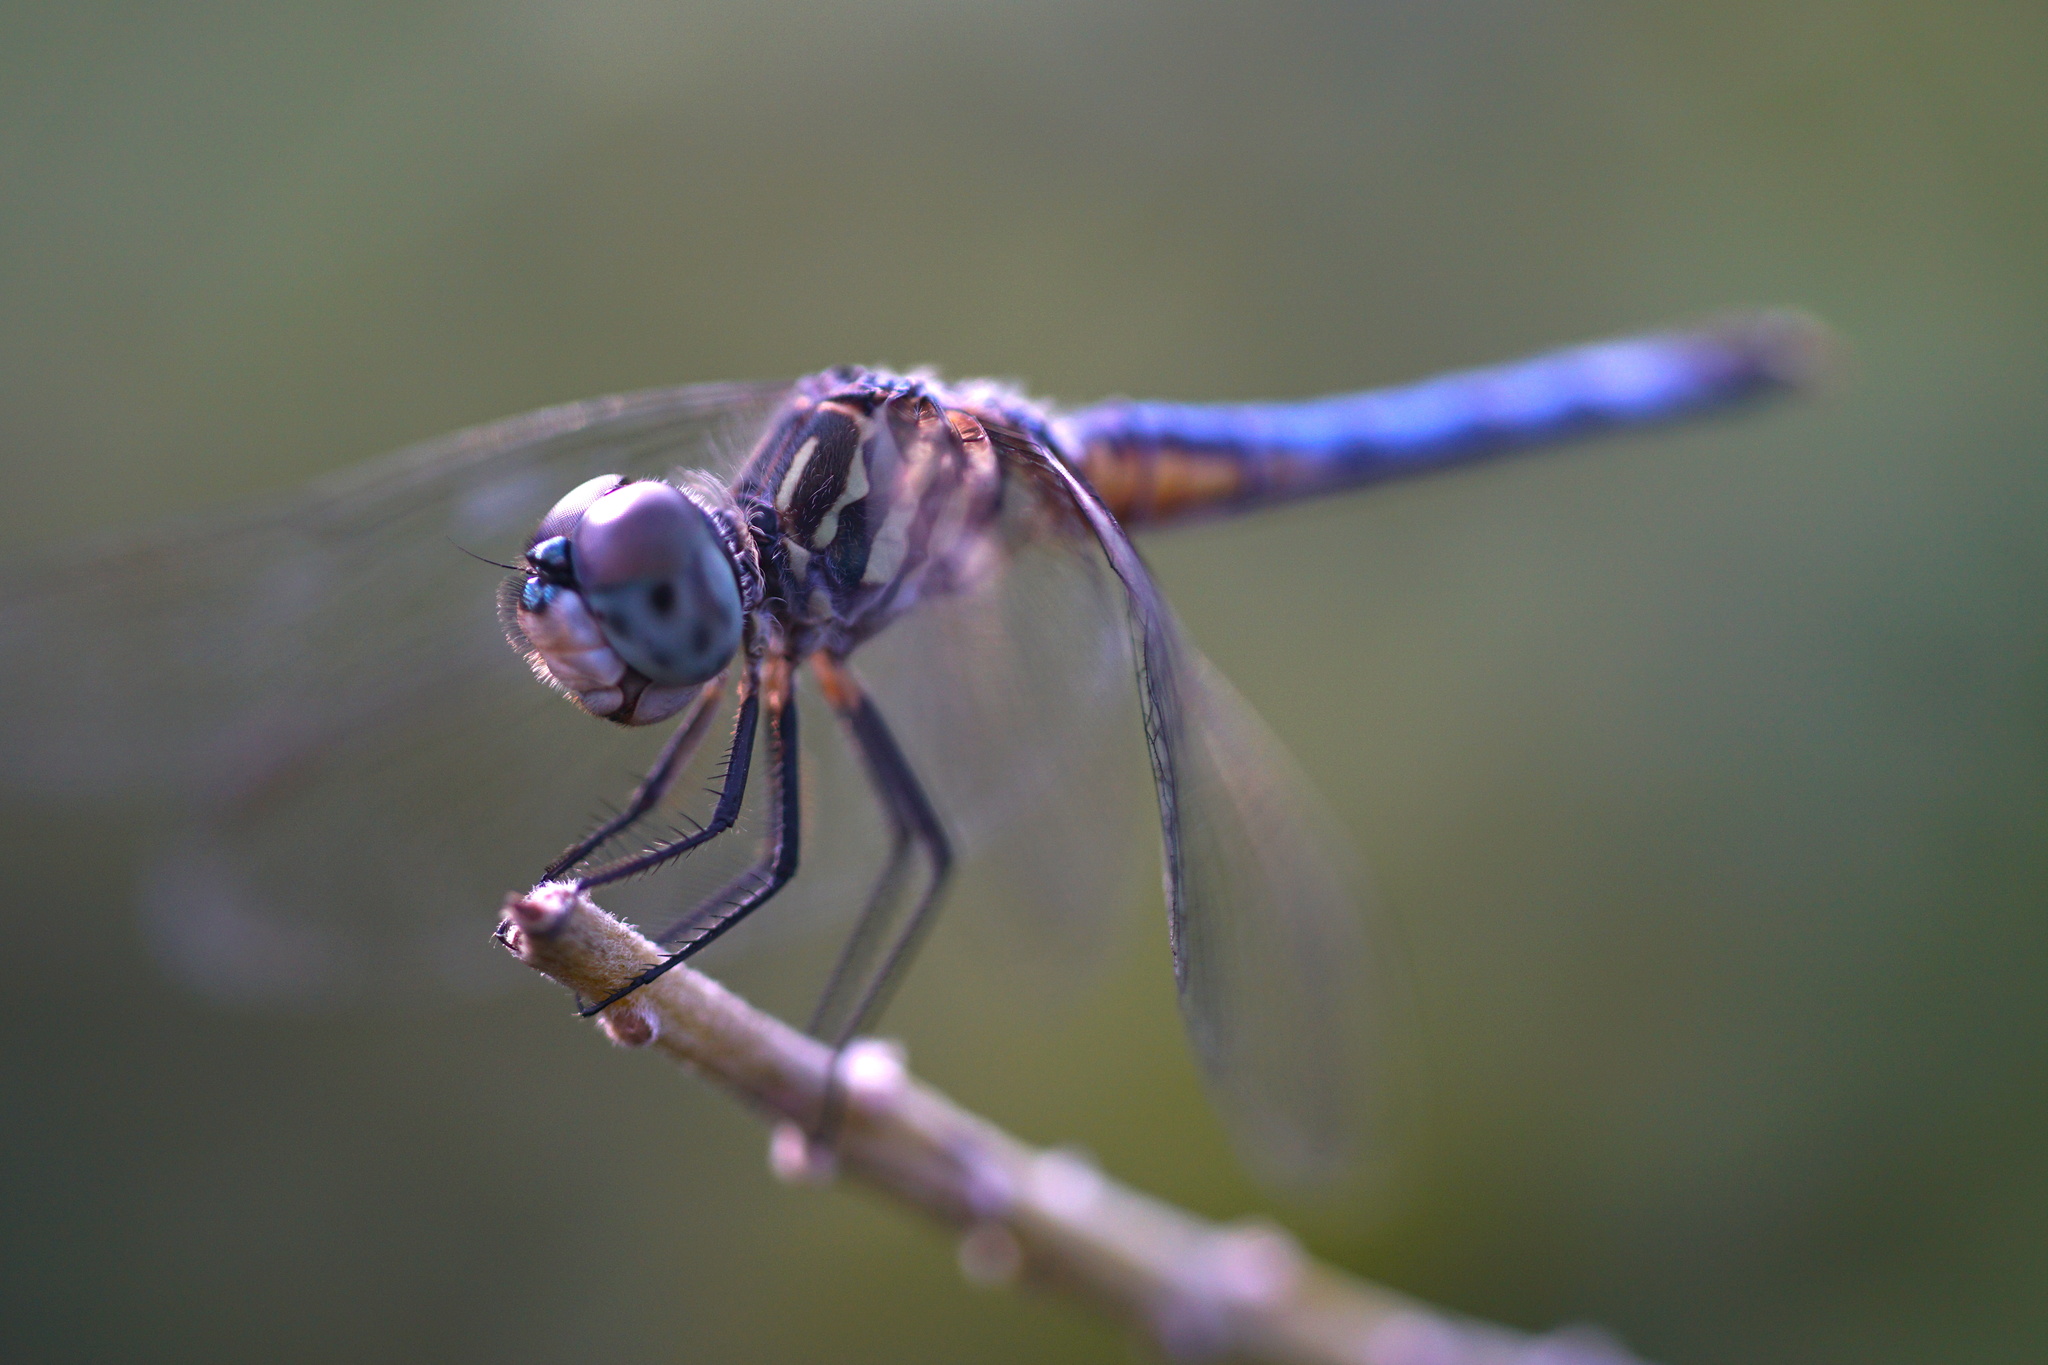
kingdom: Animalia
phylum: Arthropoda
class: Insecta
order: Odonata
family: Libellulidae
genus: Pachydiplax
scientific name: Pachydiplax longipennis
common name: Blue dasher
